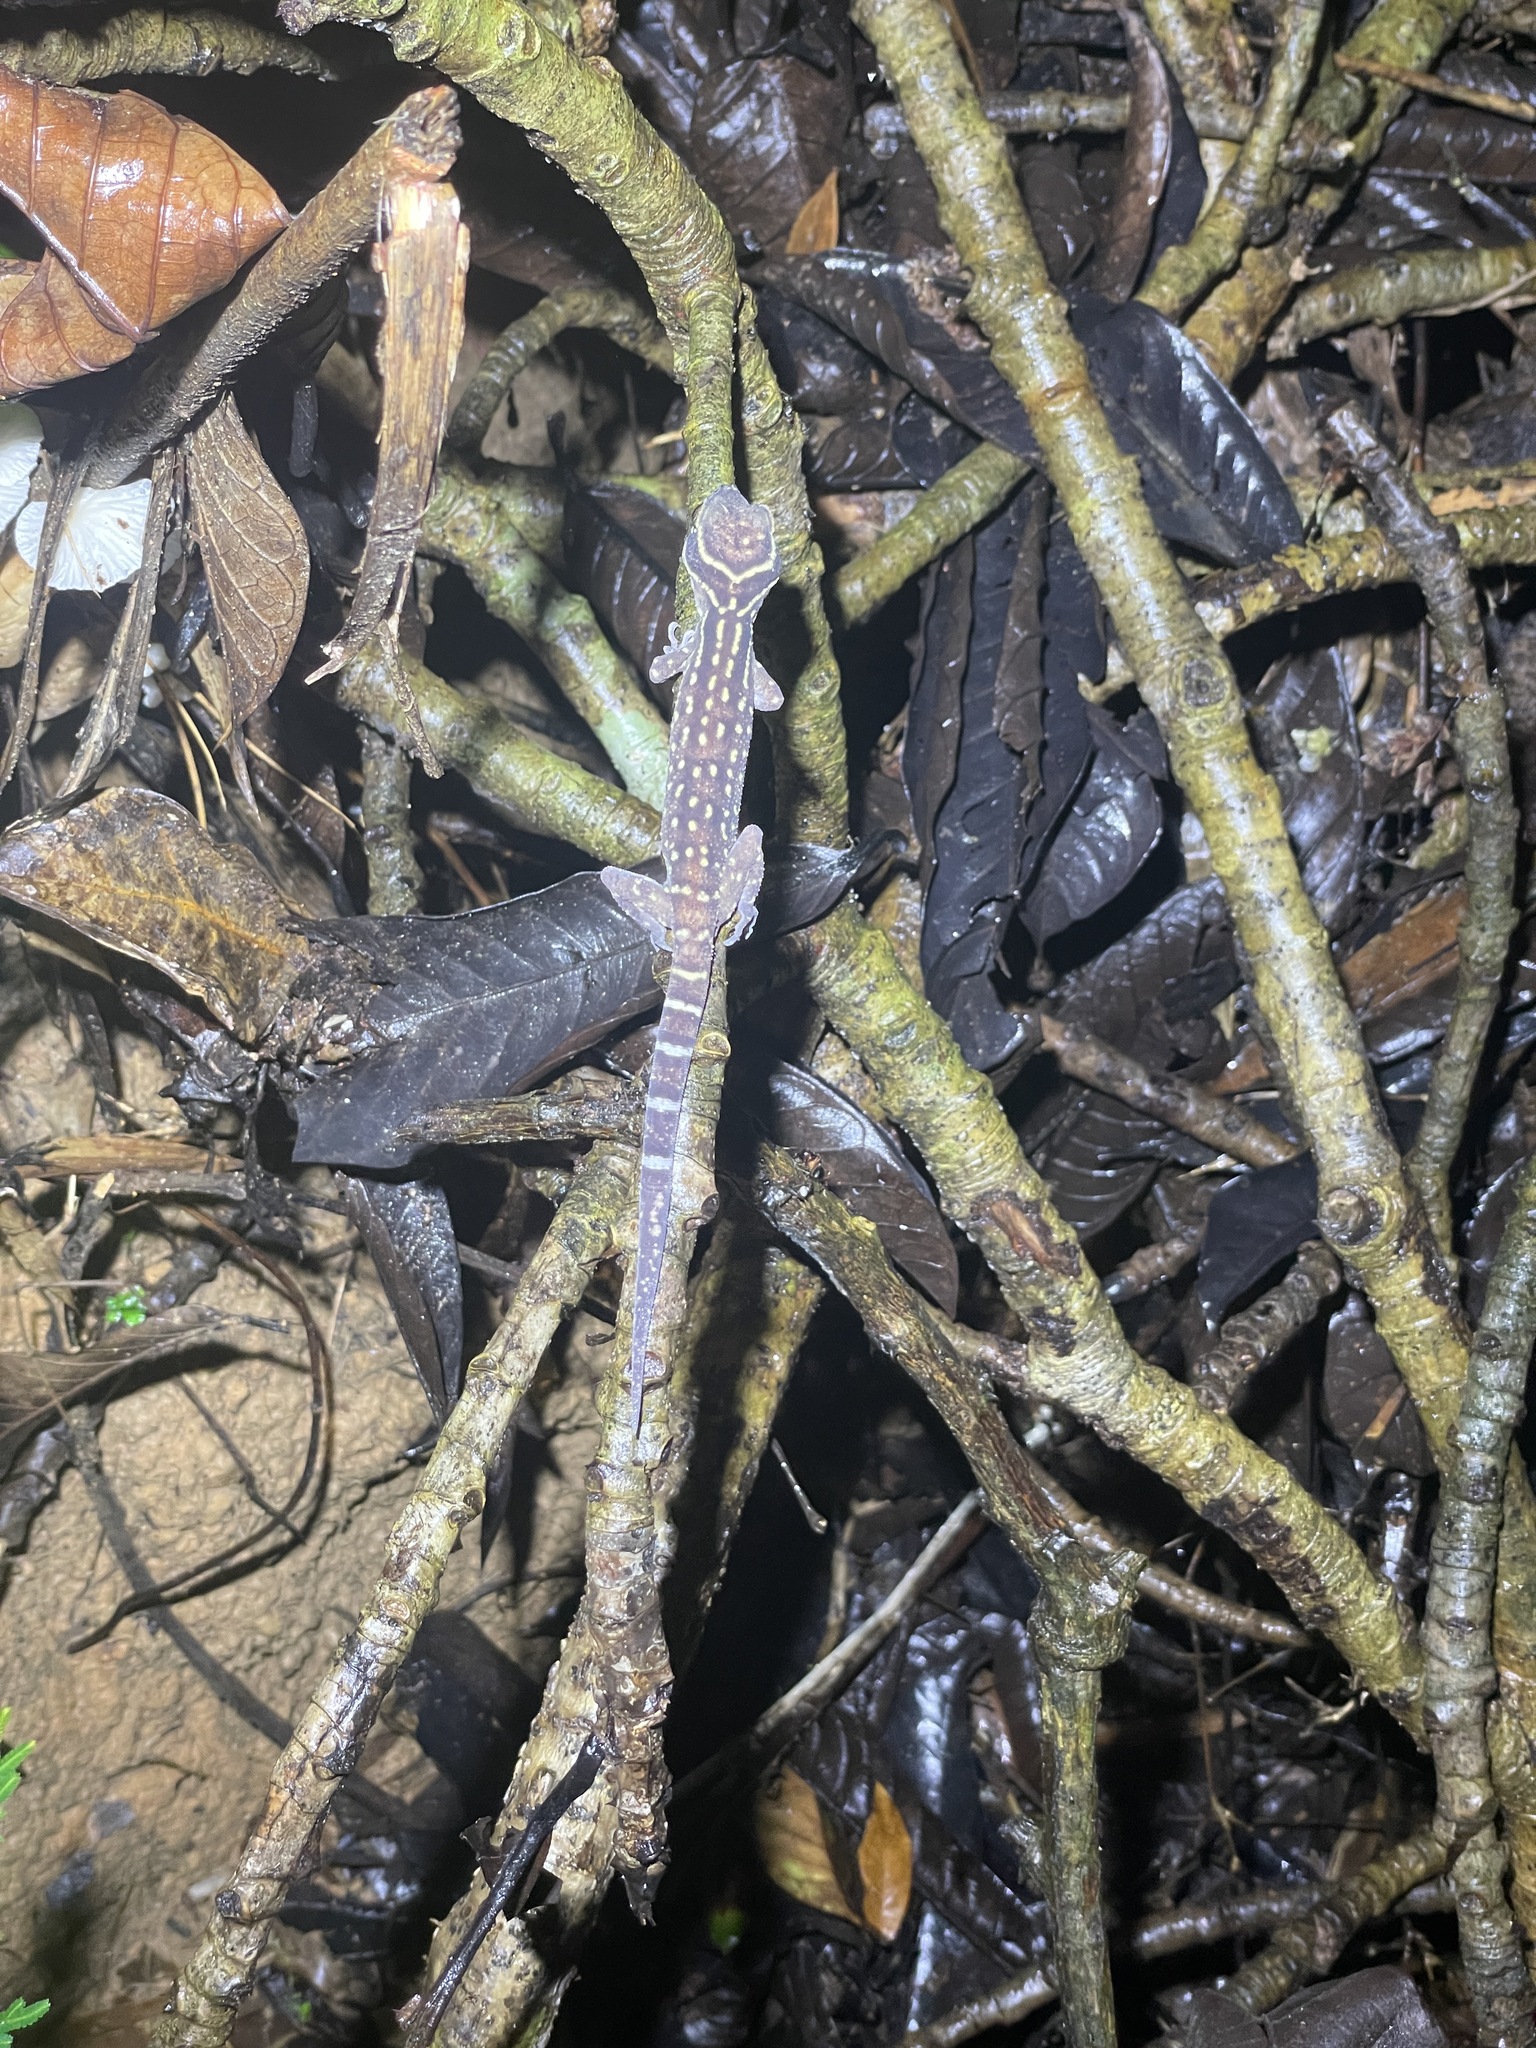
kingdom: Animalia
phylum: Chordata
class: Squamata
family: Gekkonidae
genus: Cyrtodactylus
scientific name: Cyrtodactylus oldhami
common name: Oldham's bow-fingered gecko
